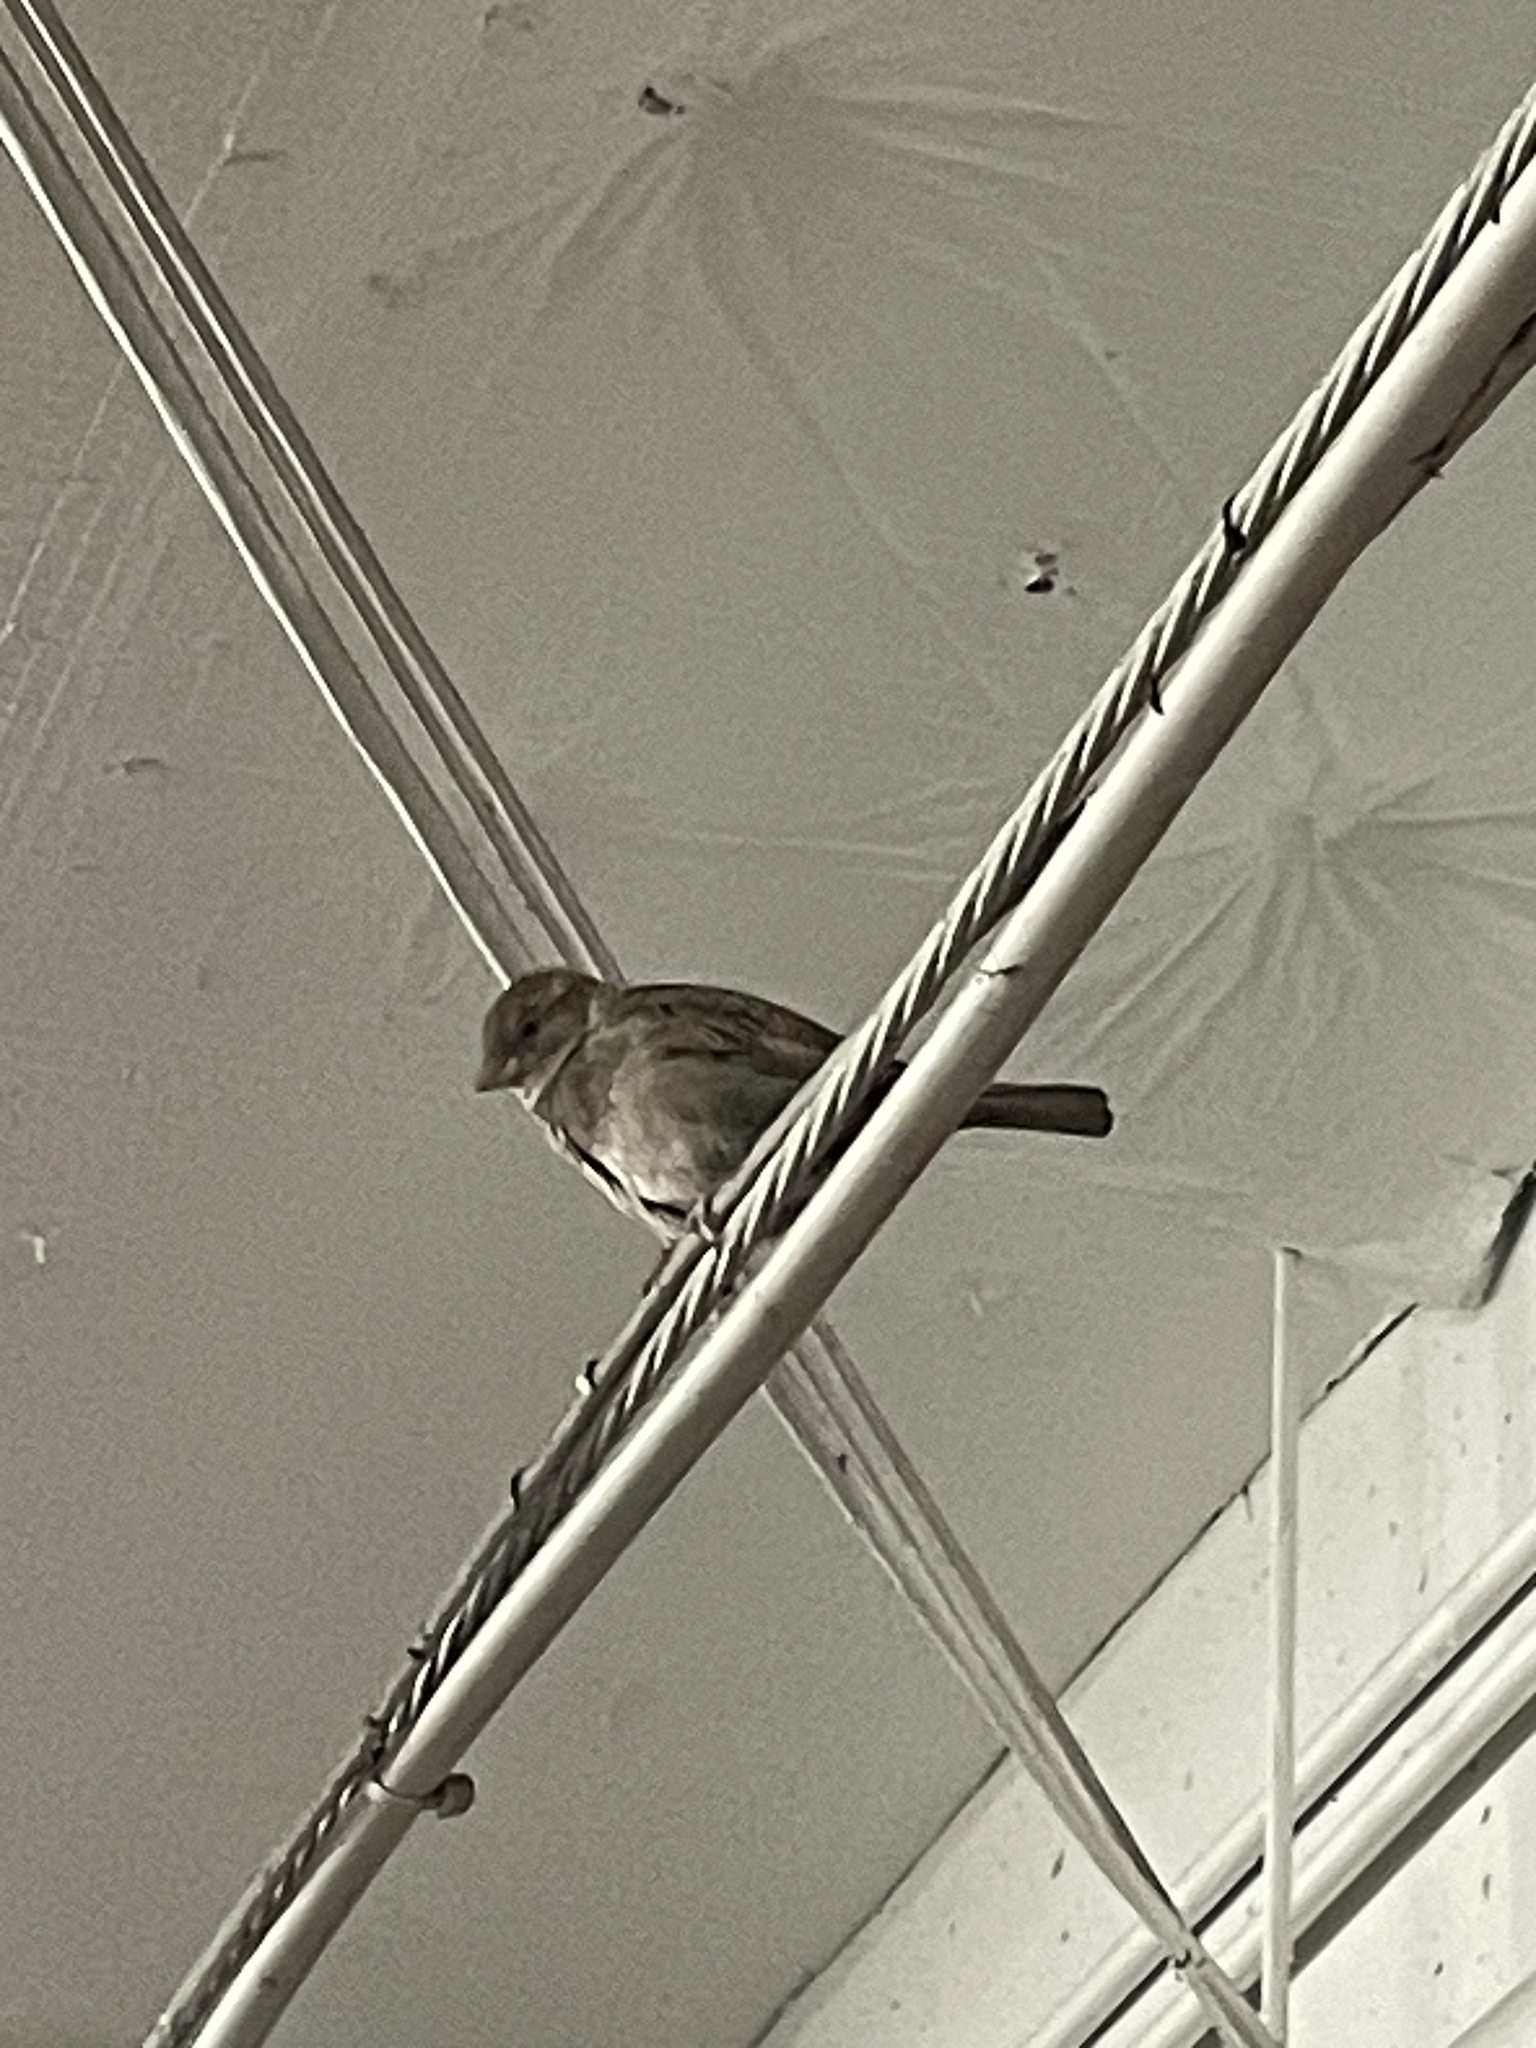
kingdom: Animalia
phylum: Chordata
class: Aves
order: Passeriformes
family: Passeridae
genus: Passer
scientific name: Passer domesticus
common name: House sparrow
